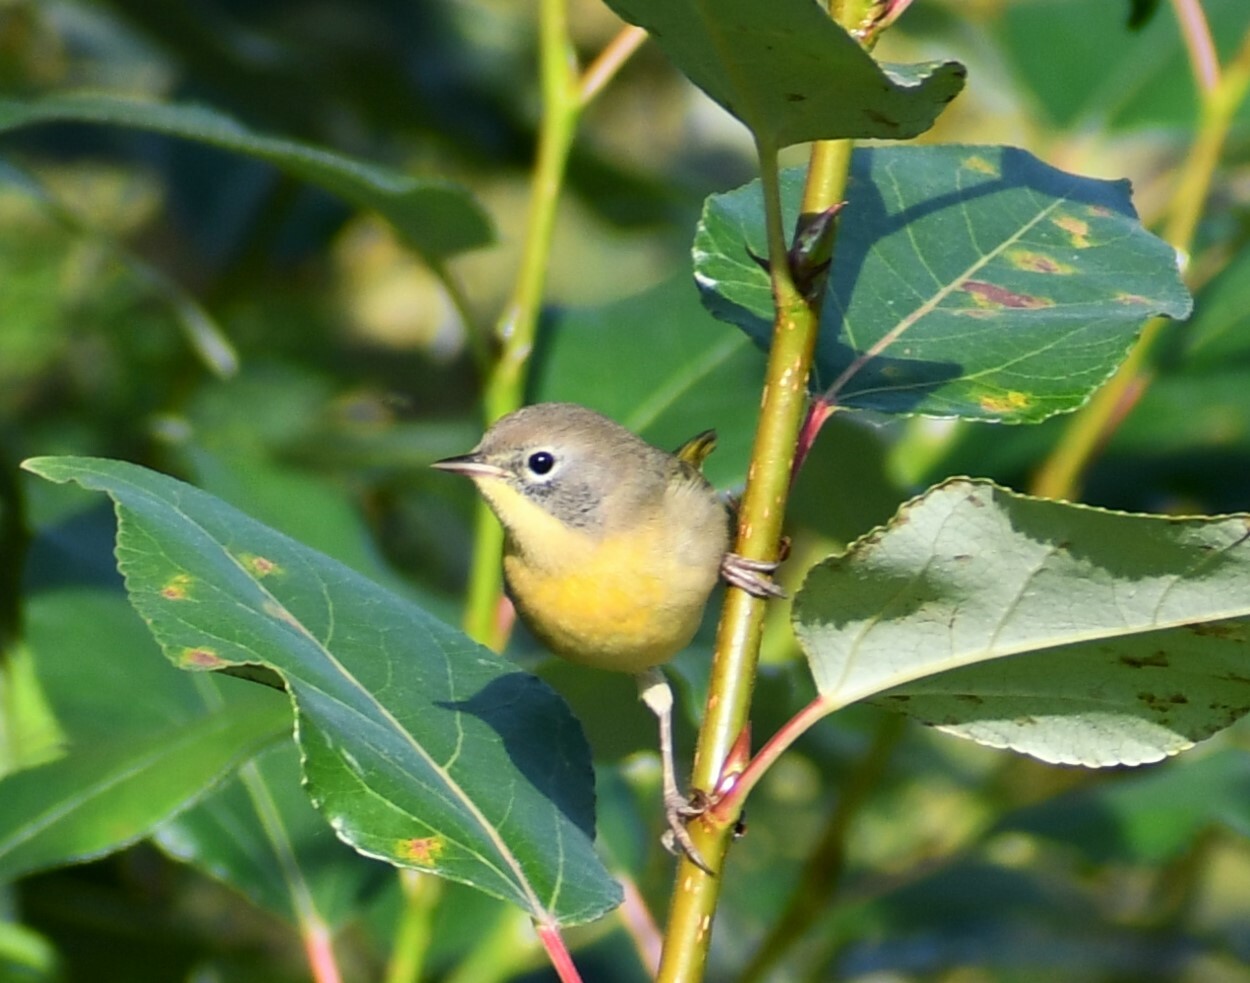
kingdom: Animalia
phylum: Chordata
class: Aves
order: Passeriformes
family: Parulidae
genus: Geothlypis
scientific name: Geothlypis trichas
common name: Common yellowthroat
